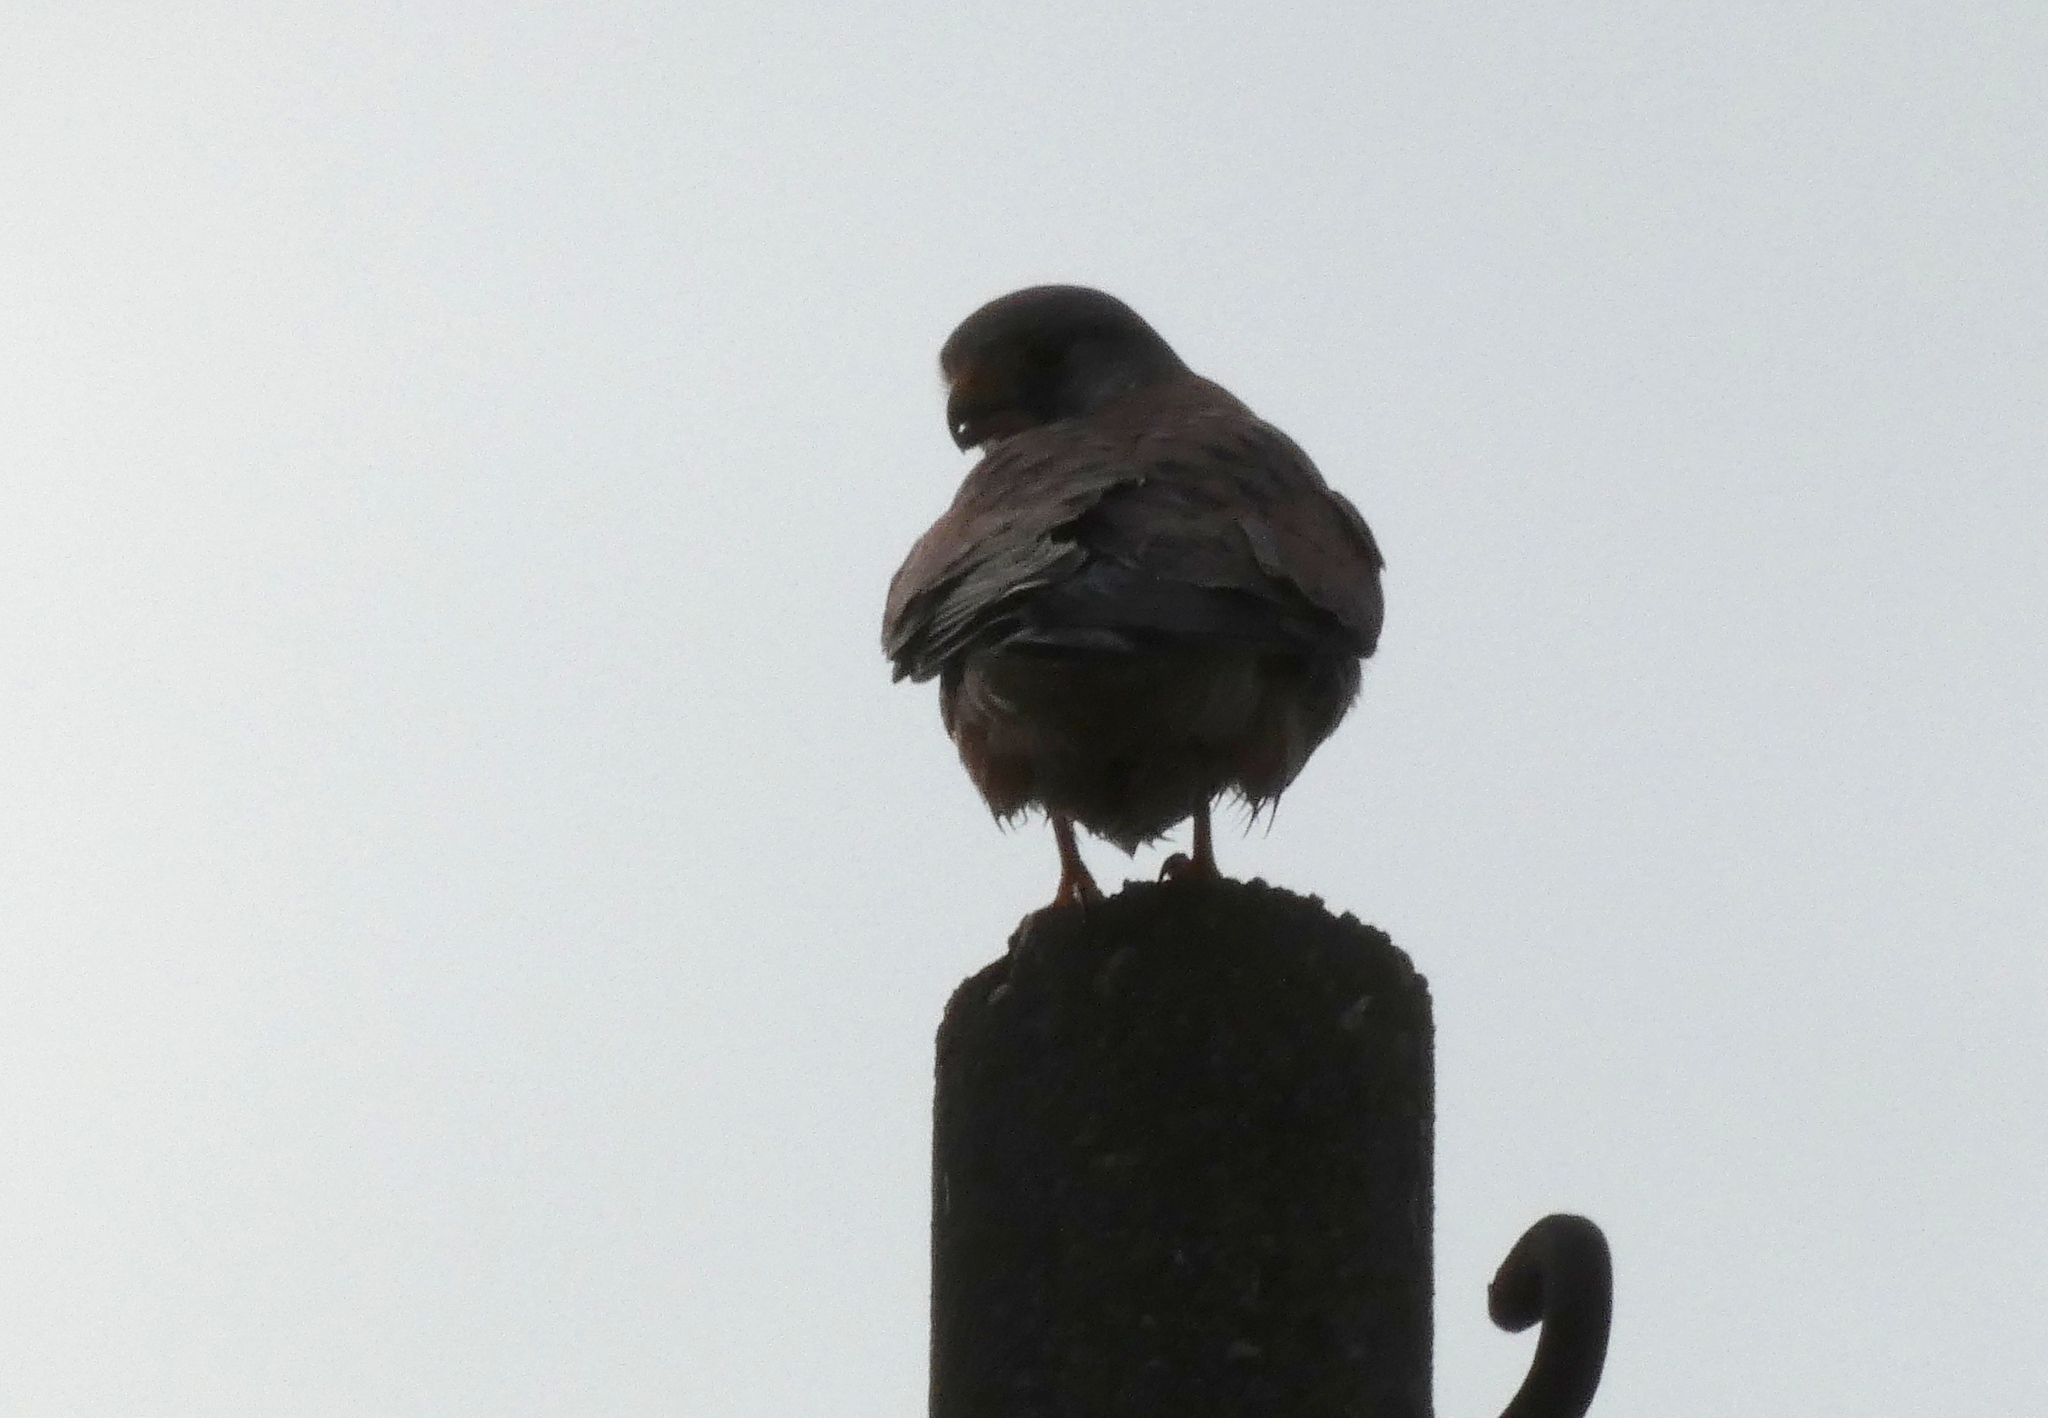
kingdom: Animalia
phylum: Chordata
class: Aves
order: Falconiformes
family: Falconidae
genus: Falco
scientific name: Falco tinnunculus
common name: Common kestrel
